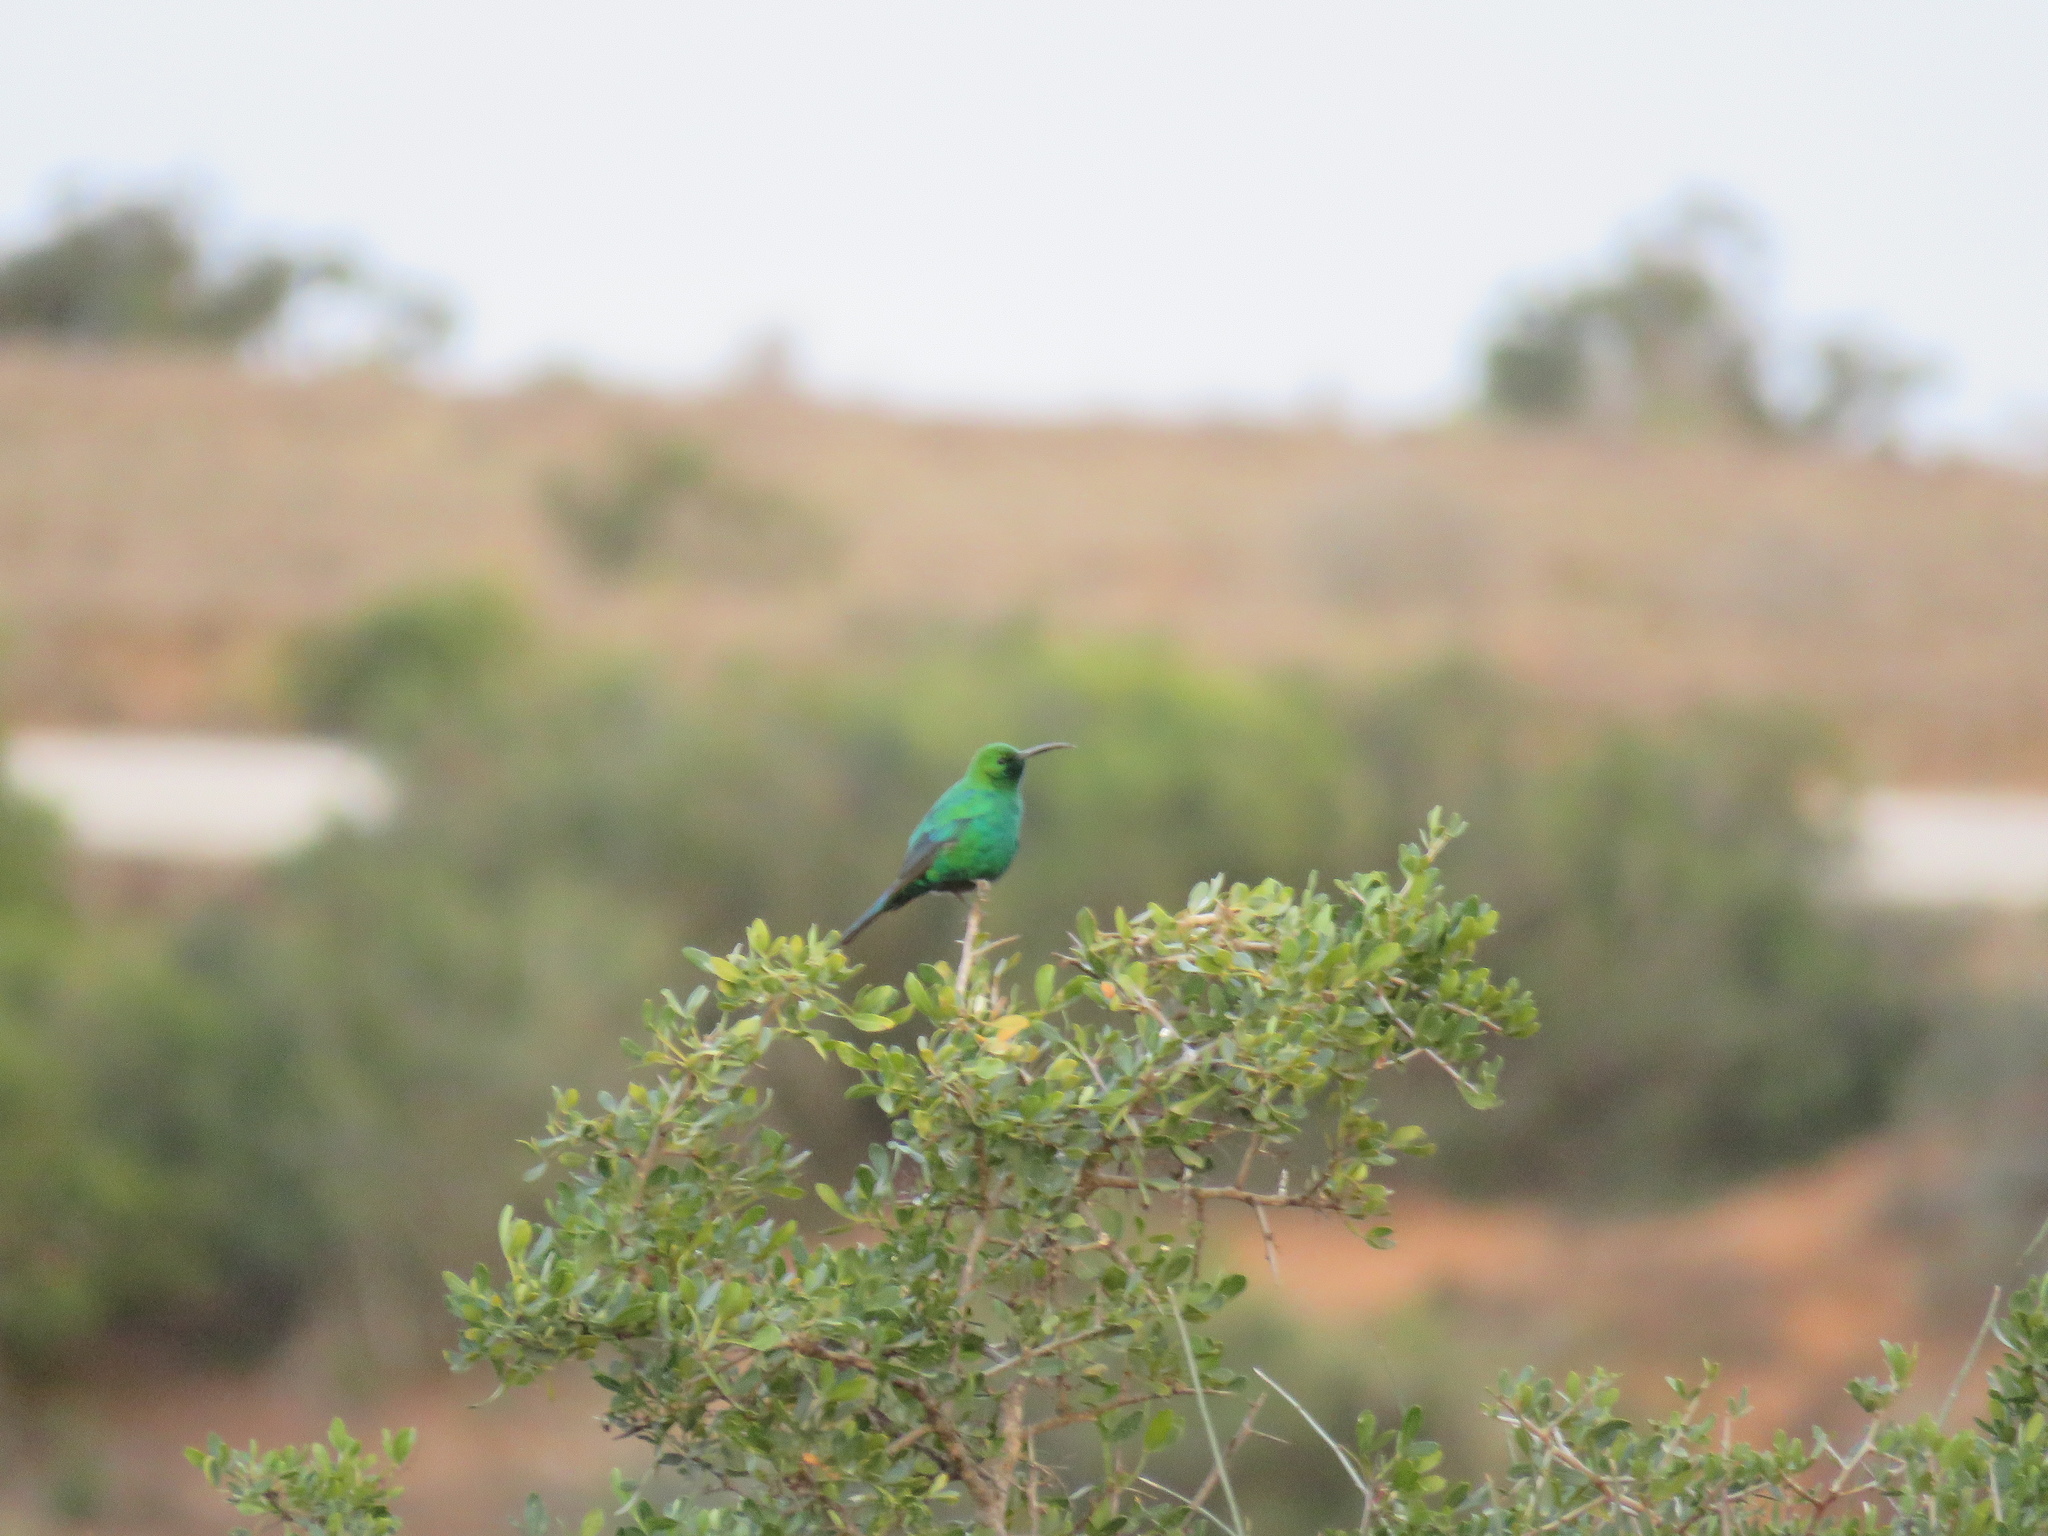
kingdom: Animalia
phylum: Chordata
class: Aves
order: Passeriformes
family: Nectariniidae
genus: Nectarinia
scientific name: Nectarinia famosa
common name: Malachite sunbird
